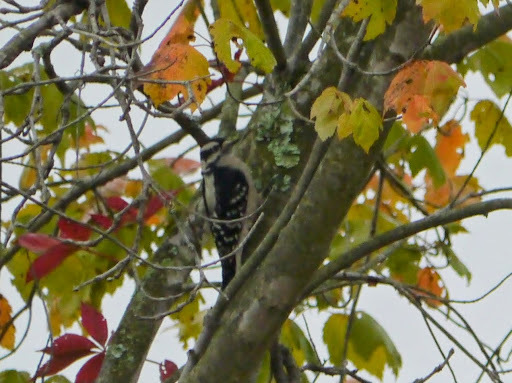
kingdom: Animalia
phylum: Chordata
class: Aves
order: Piciformes
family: Picidae
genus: Dryobates
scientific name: Dryobates pubescens
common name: Downy woodpecker
